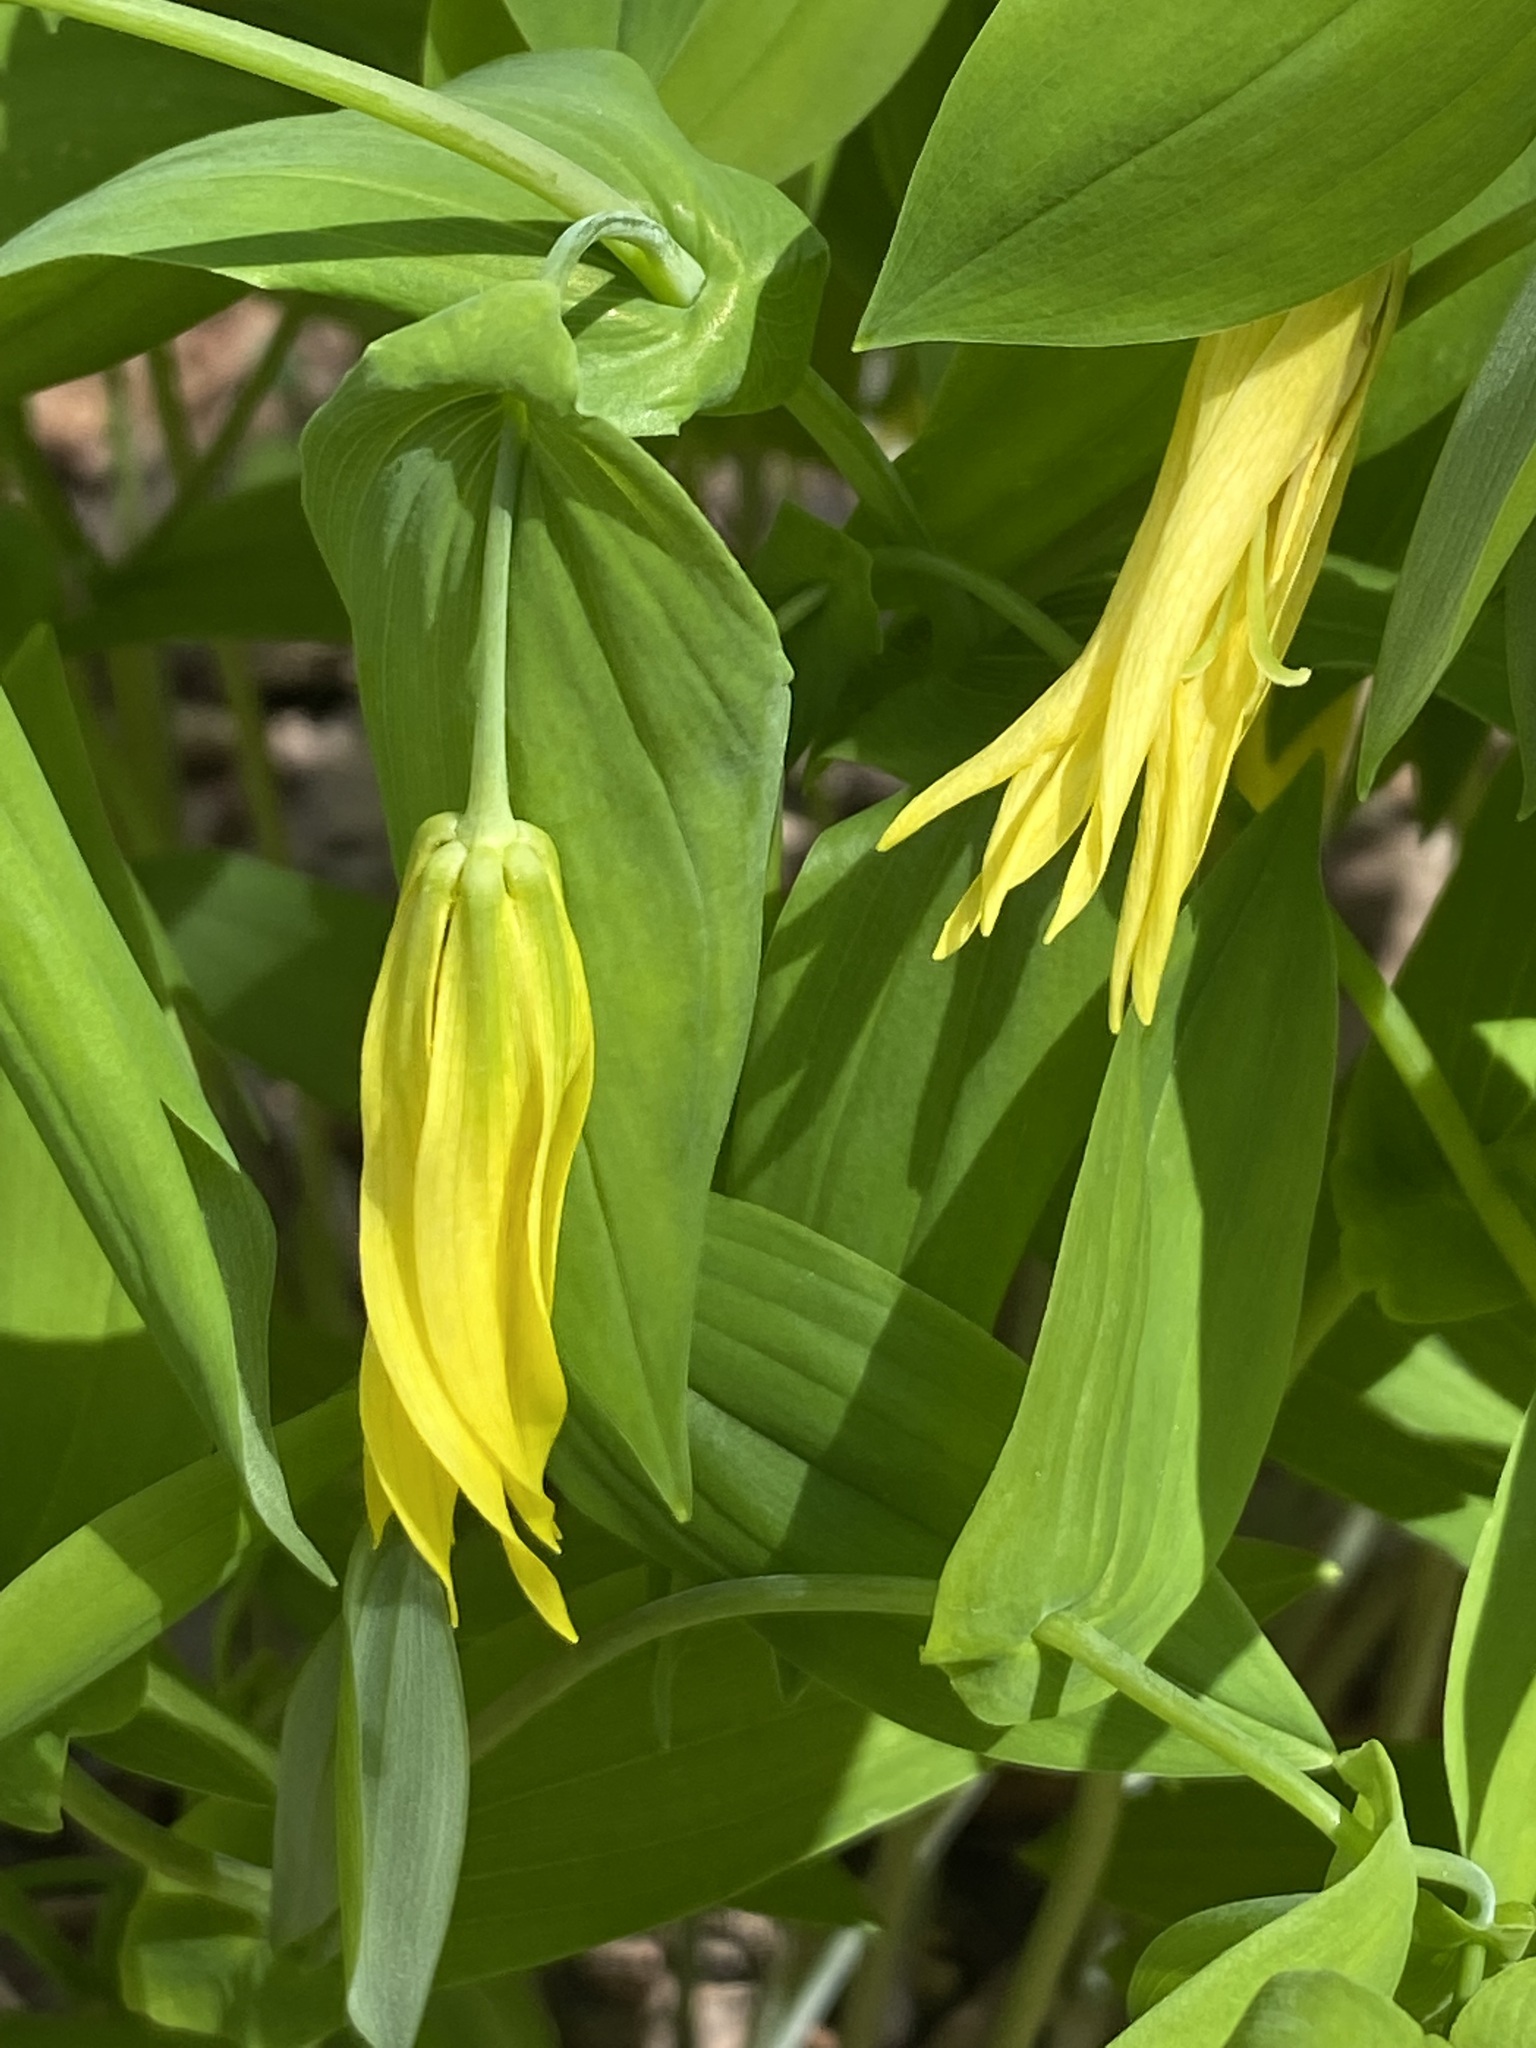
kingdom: Plantae
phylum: Tracheophyta
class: Liliopsida
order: Liliales
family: Colchicaceae
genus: Uvularia
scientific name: Uvularia grandiflora
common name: Bellwort
